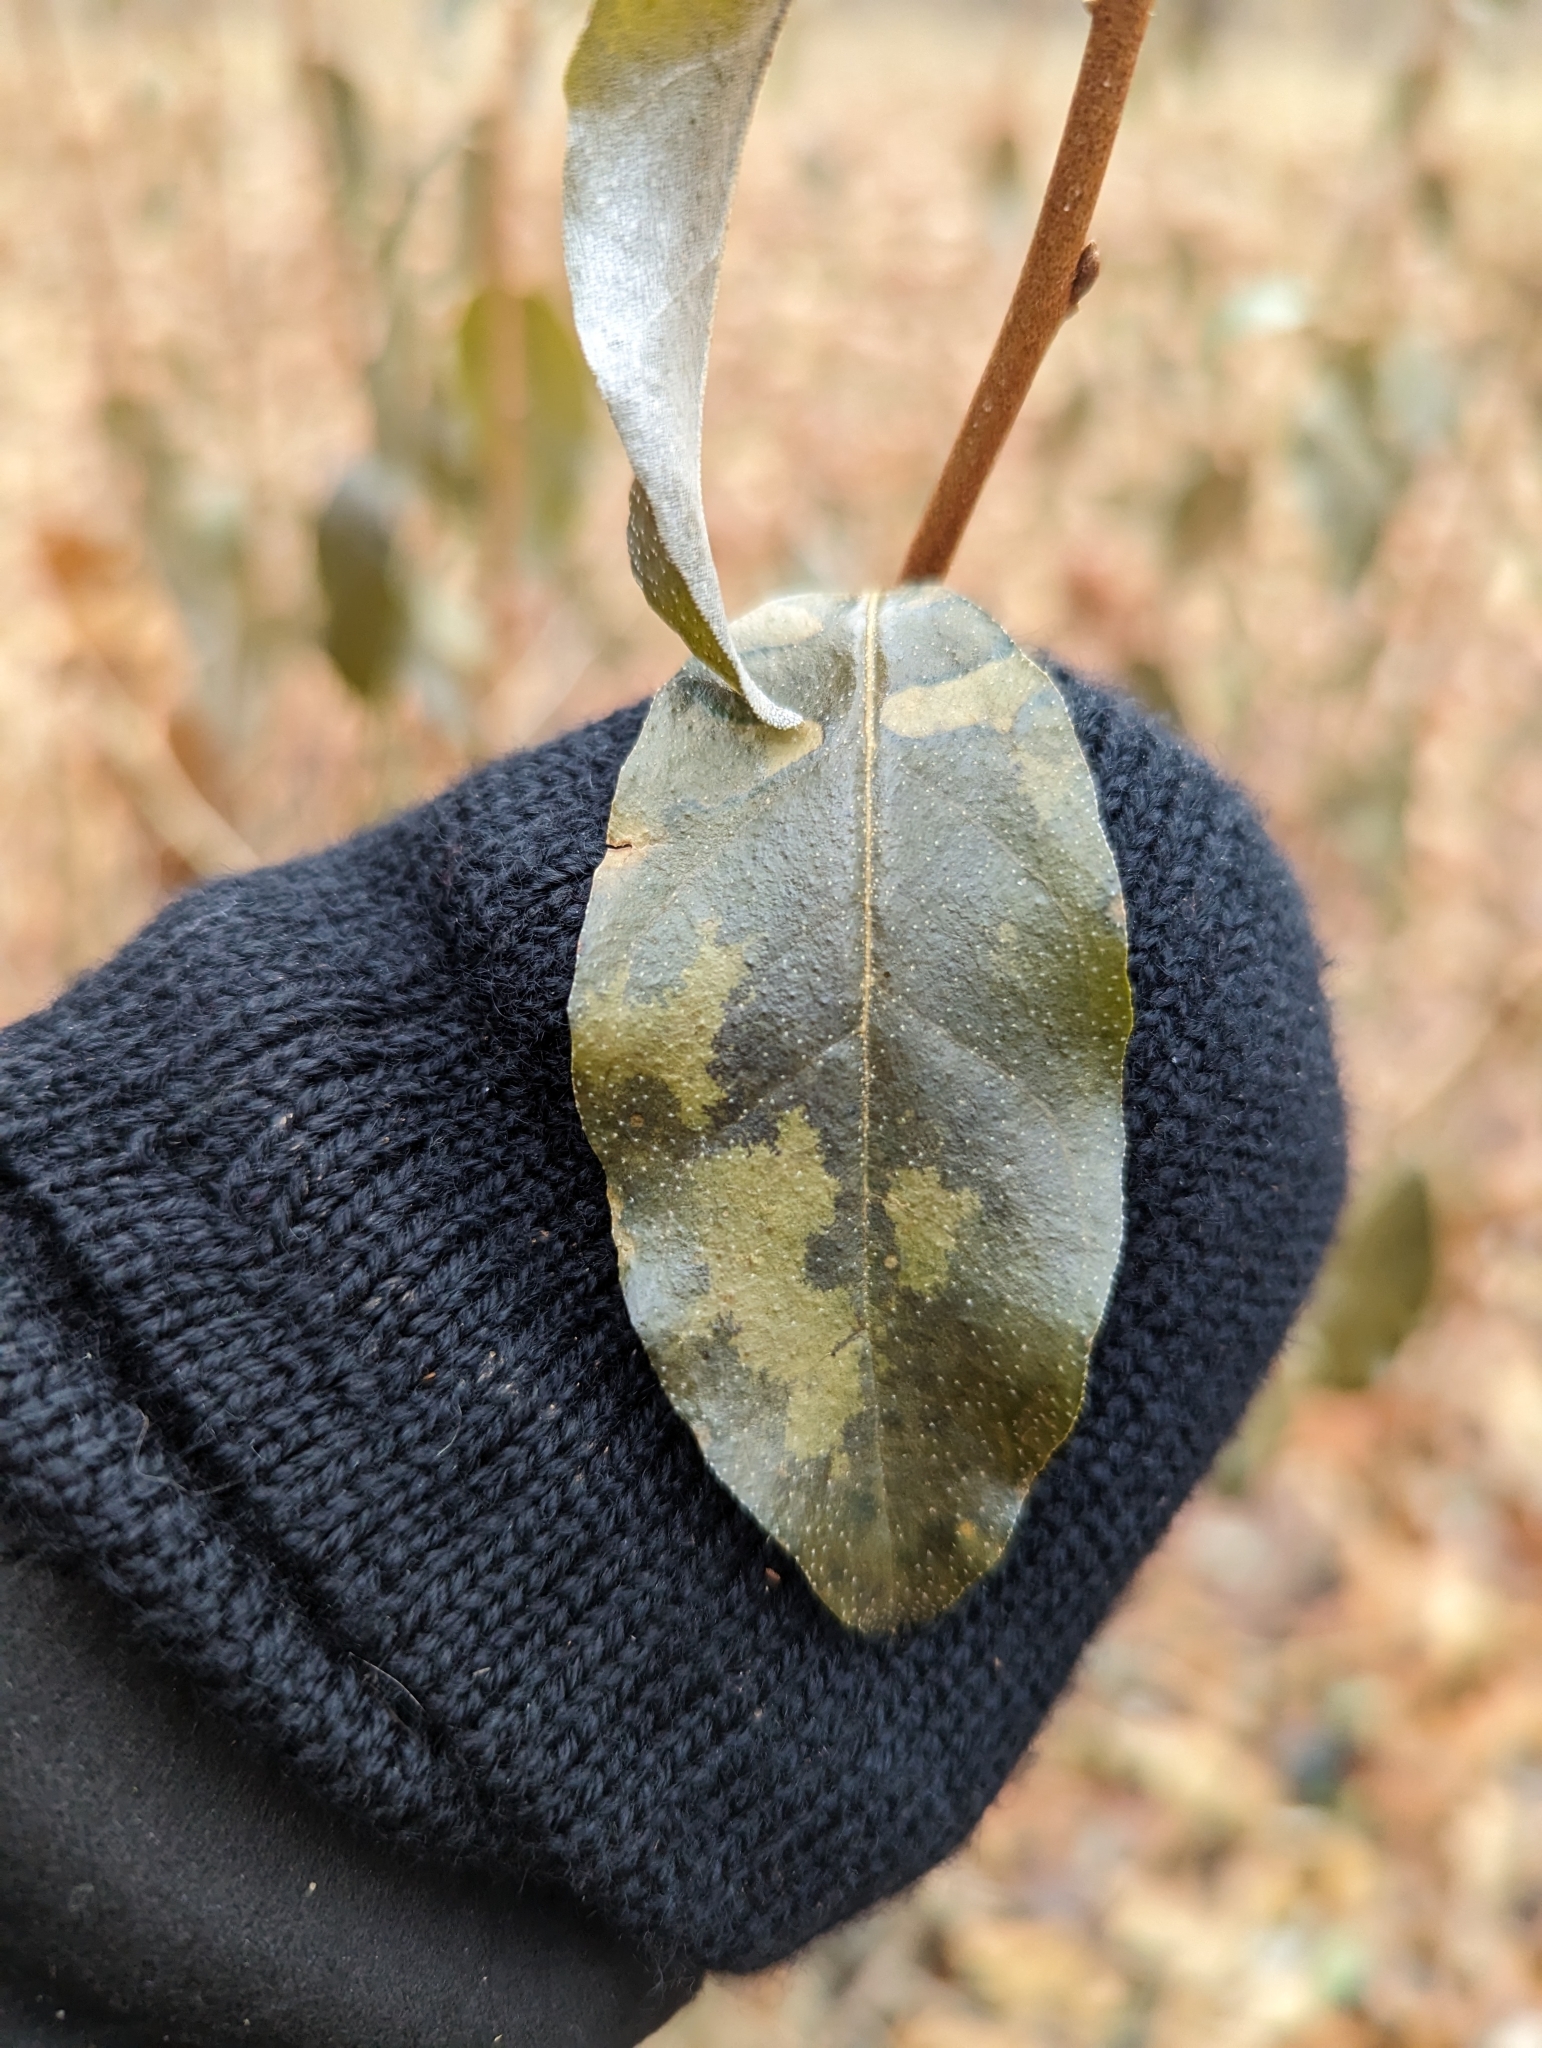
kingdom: Plantae
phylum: Tracheophyta
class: Magnoliopsida
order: Rosales
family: Elaeagnaceae
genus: Elaeagnus
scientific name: Elaeagnus umbellata
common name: Autumn olive
